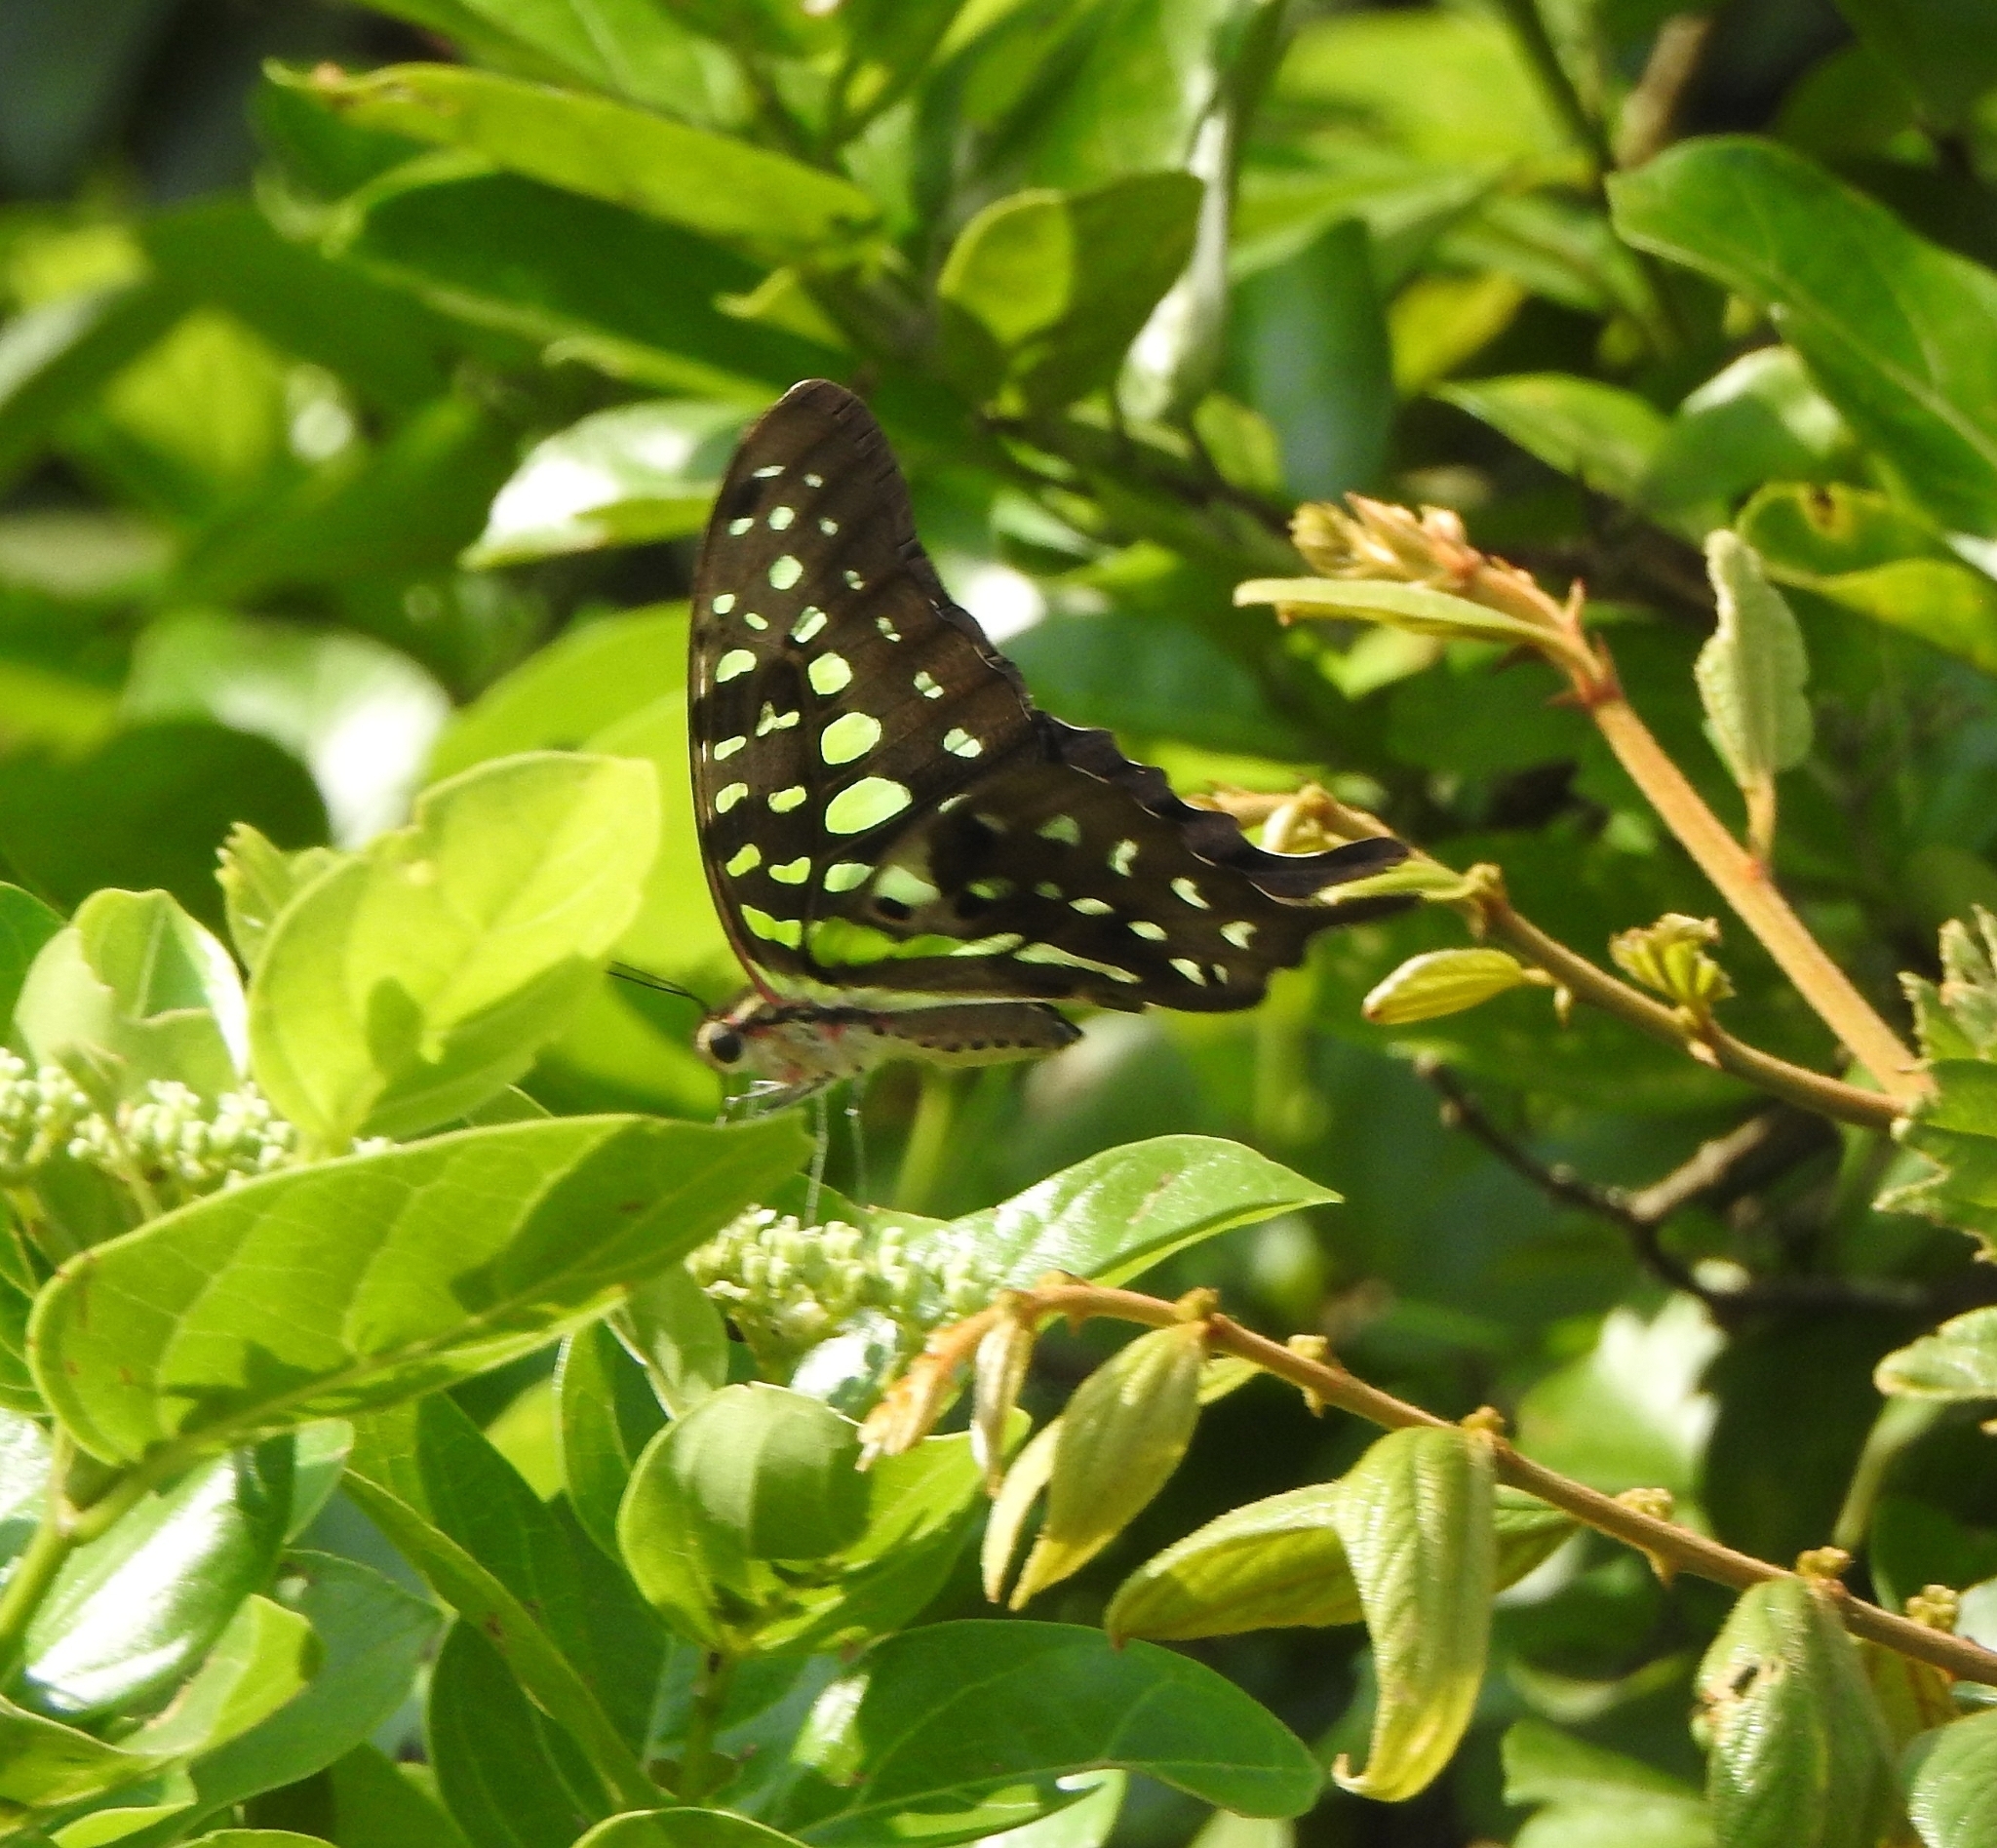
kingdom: Animalia
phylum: Arthropoda
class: Insecta
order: Lepidoptera
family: Papilionidae
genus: Graphium
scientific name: Graphium agamemnon
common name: Tailed jay
